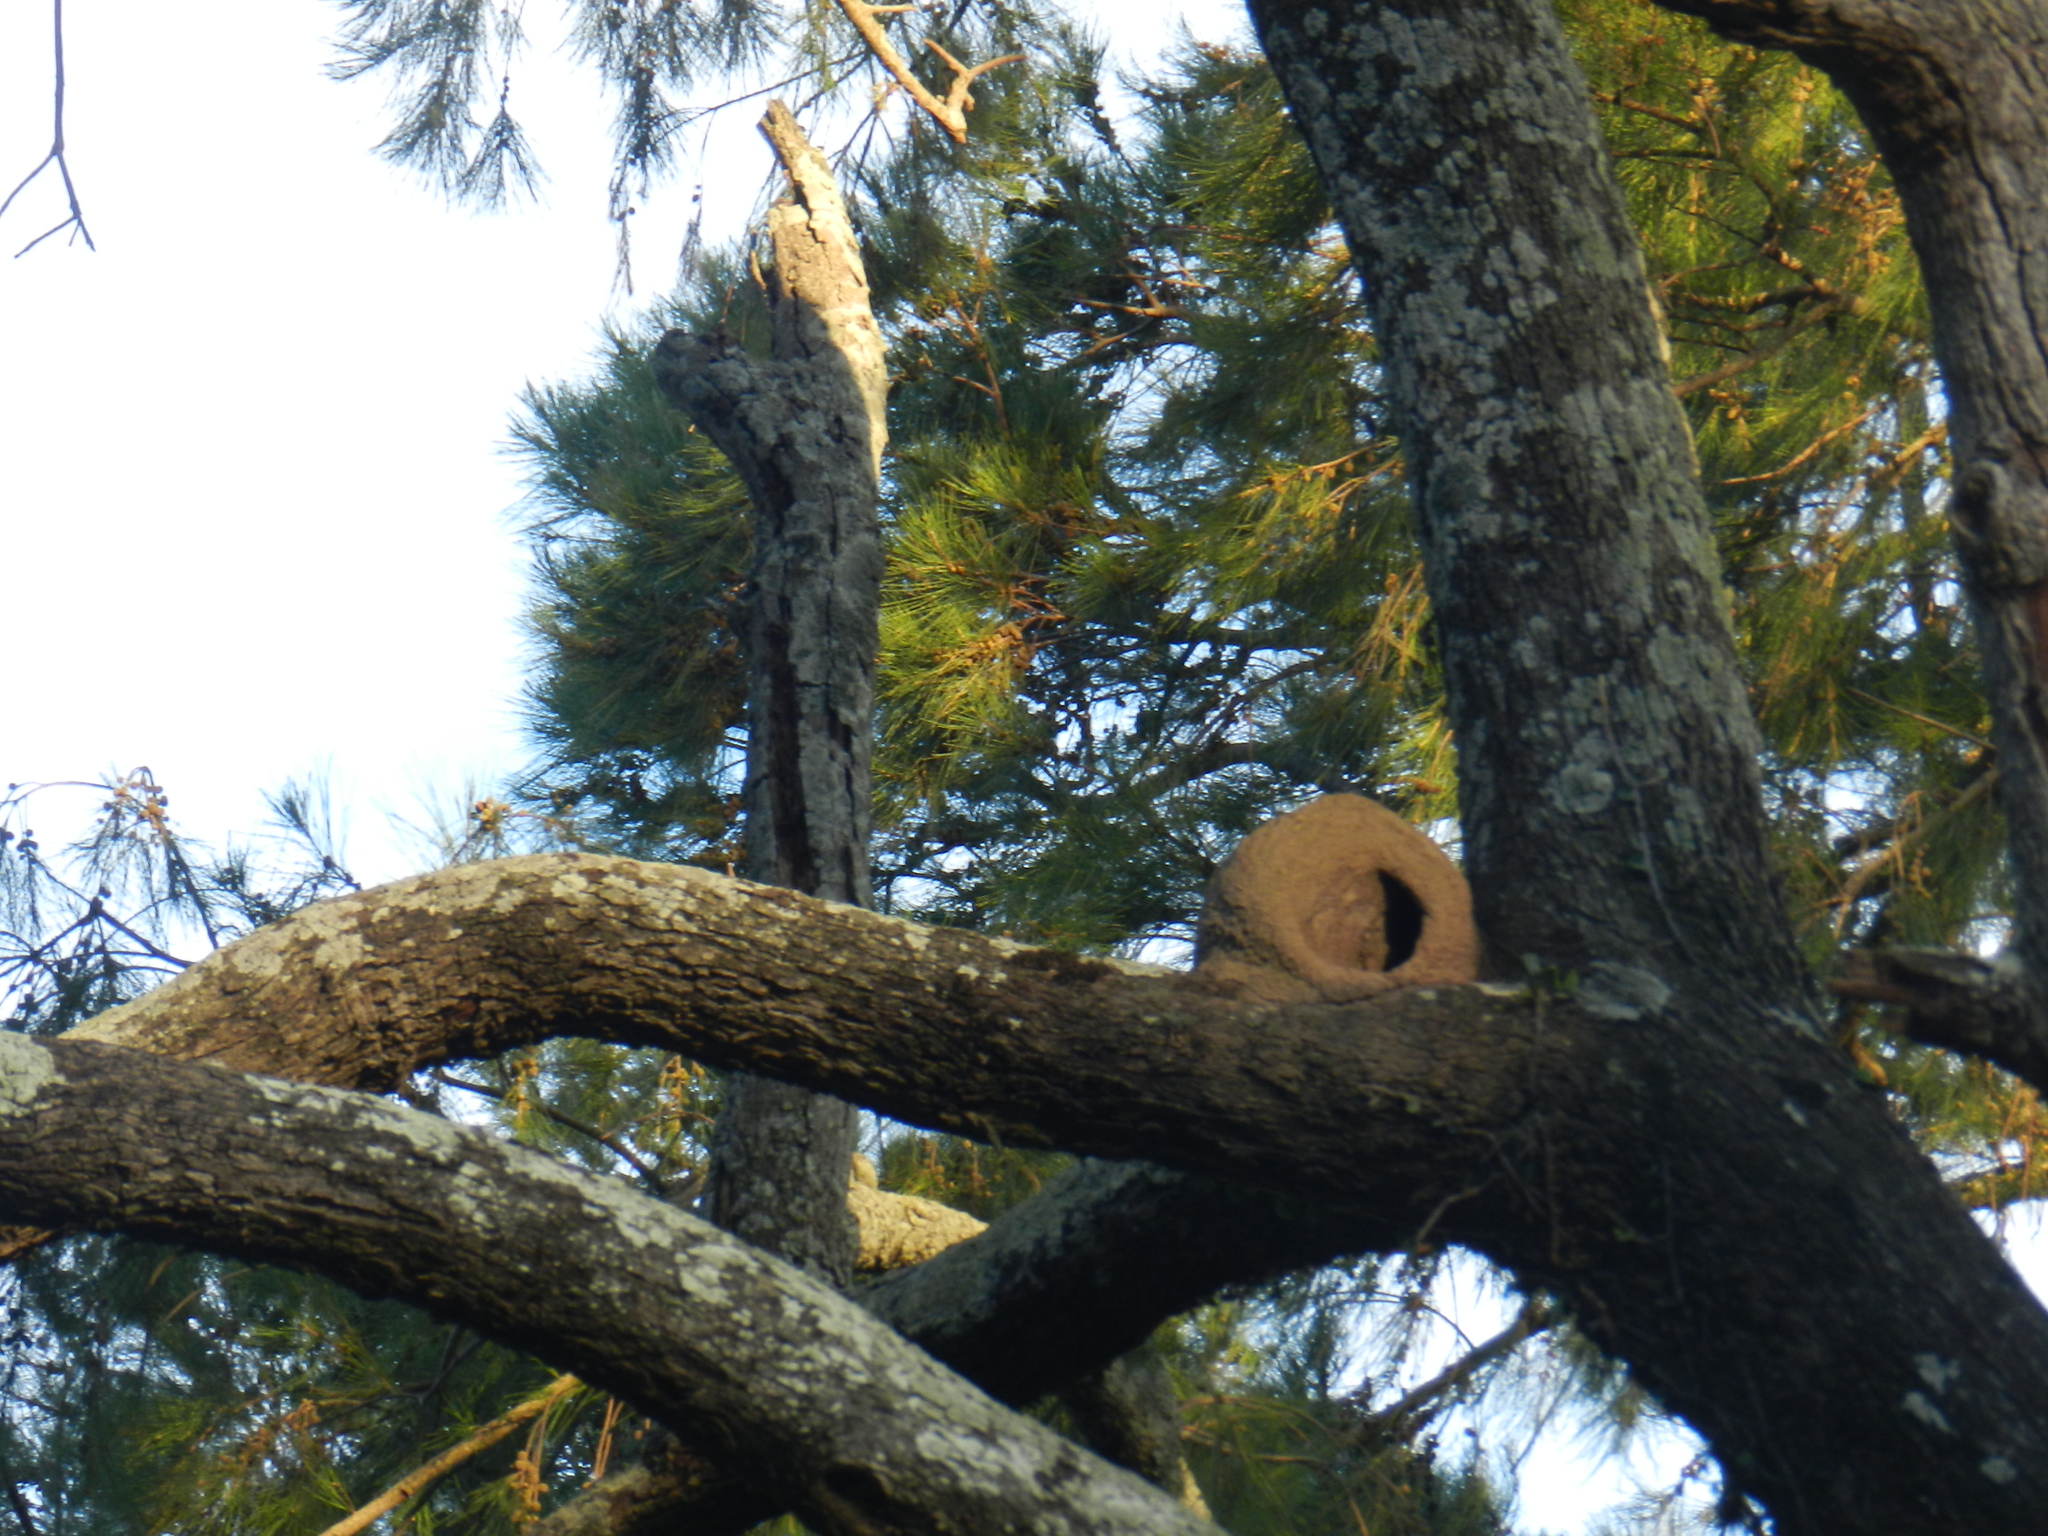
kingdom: Animalia
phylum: Chordata
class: Aves
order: Passeriformes
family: Furnariidae
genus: Furnarius
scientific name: Furnarius rufus
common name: Rufous hornero
